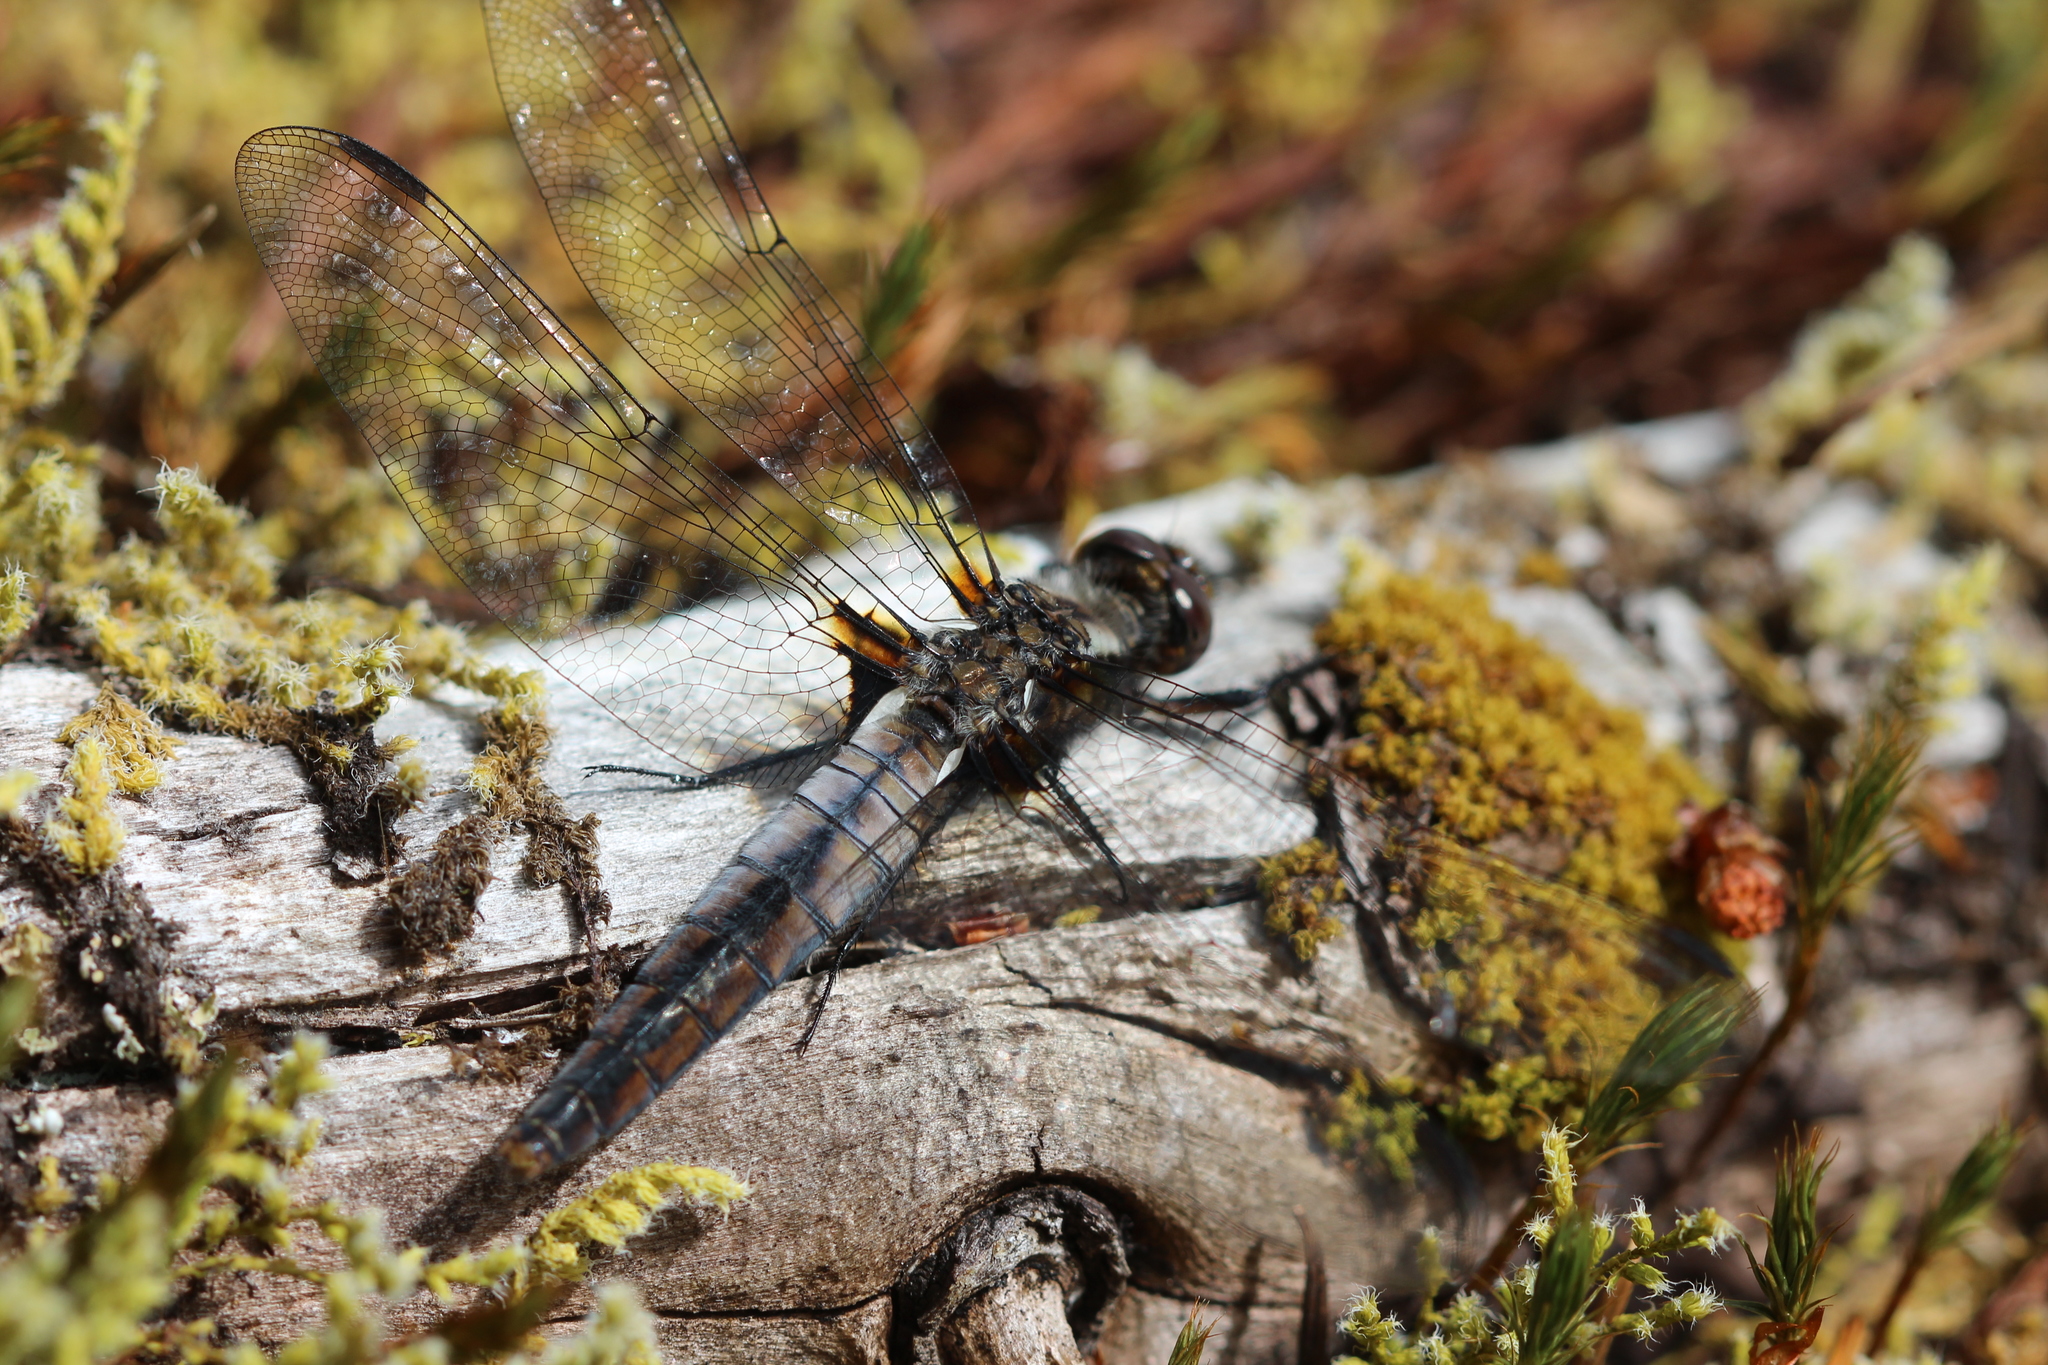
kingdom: Animalia
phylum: Arthropoda
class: Insecta
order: Odonata
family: Libellulidae
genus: Ladona
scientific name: Ladona julia
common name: Chalk-fronted corporal
